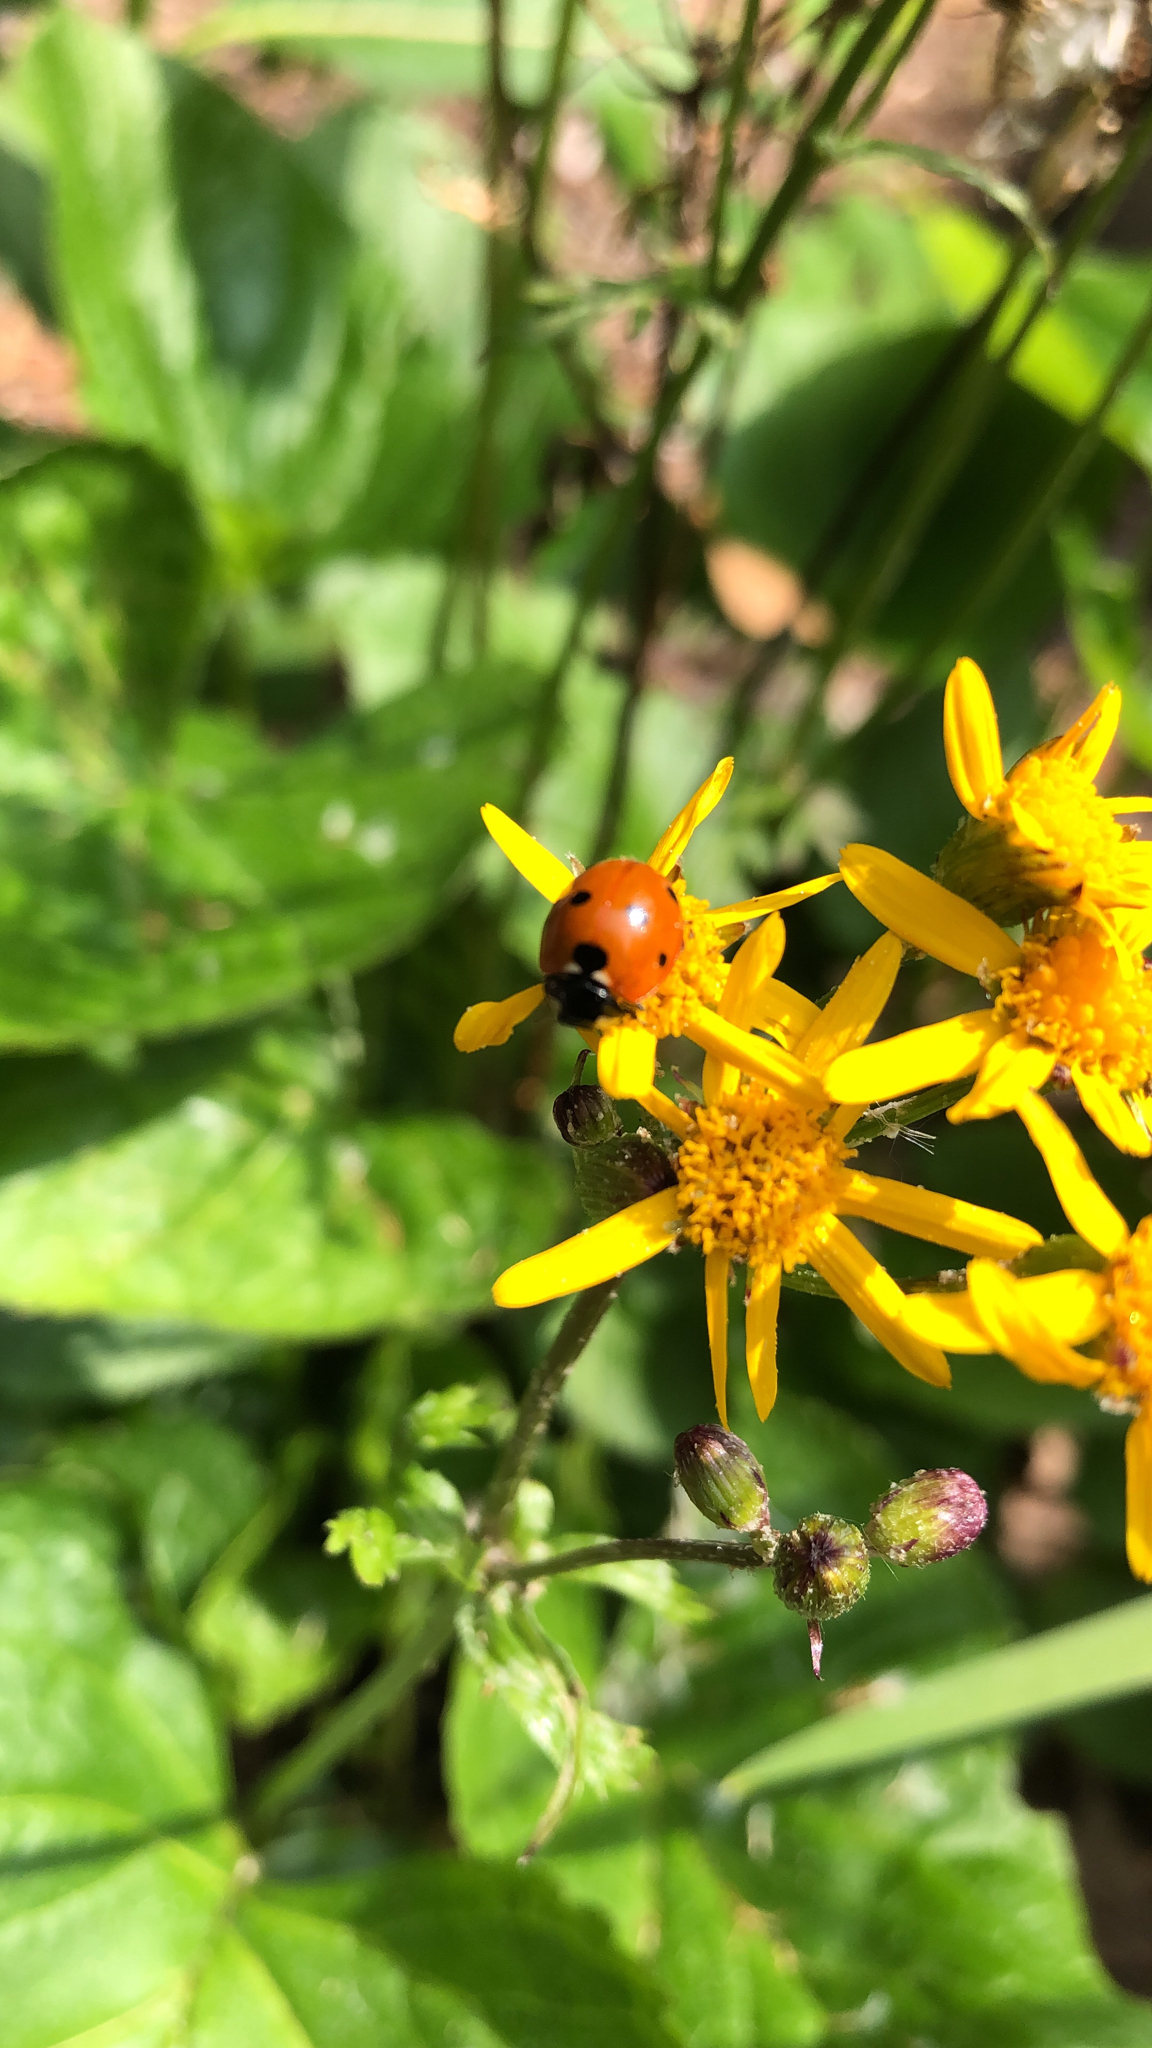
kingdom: Animalia
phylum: Arthropoda
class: Insecta
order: Coleoptera
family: Coccinellidae
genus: Coccinella
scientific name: Coccinella septempunctata
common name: Sevenspotted lady beetle
